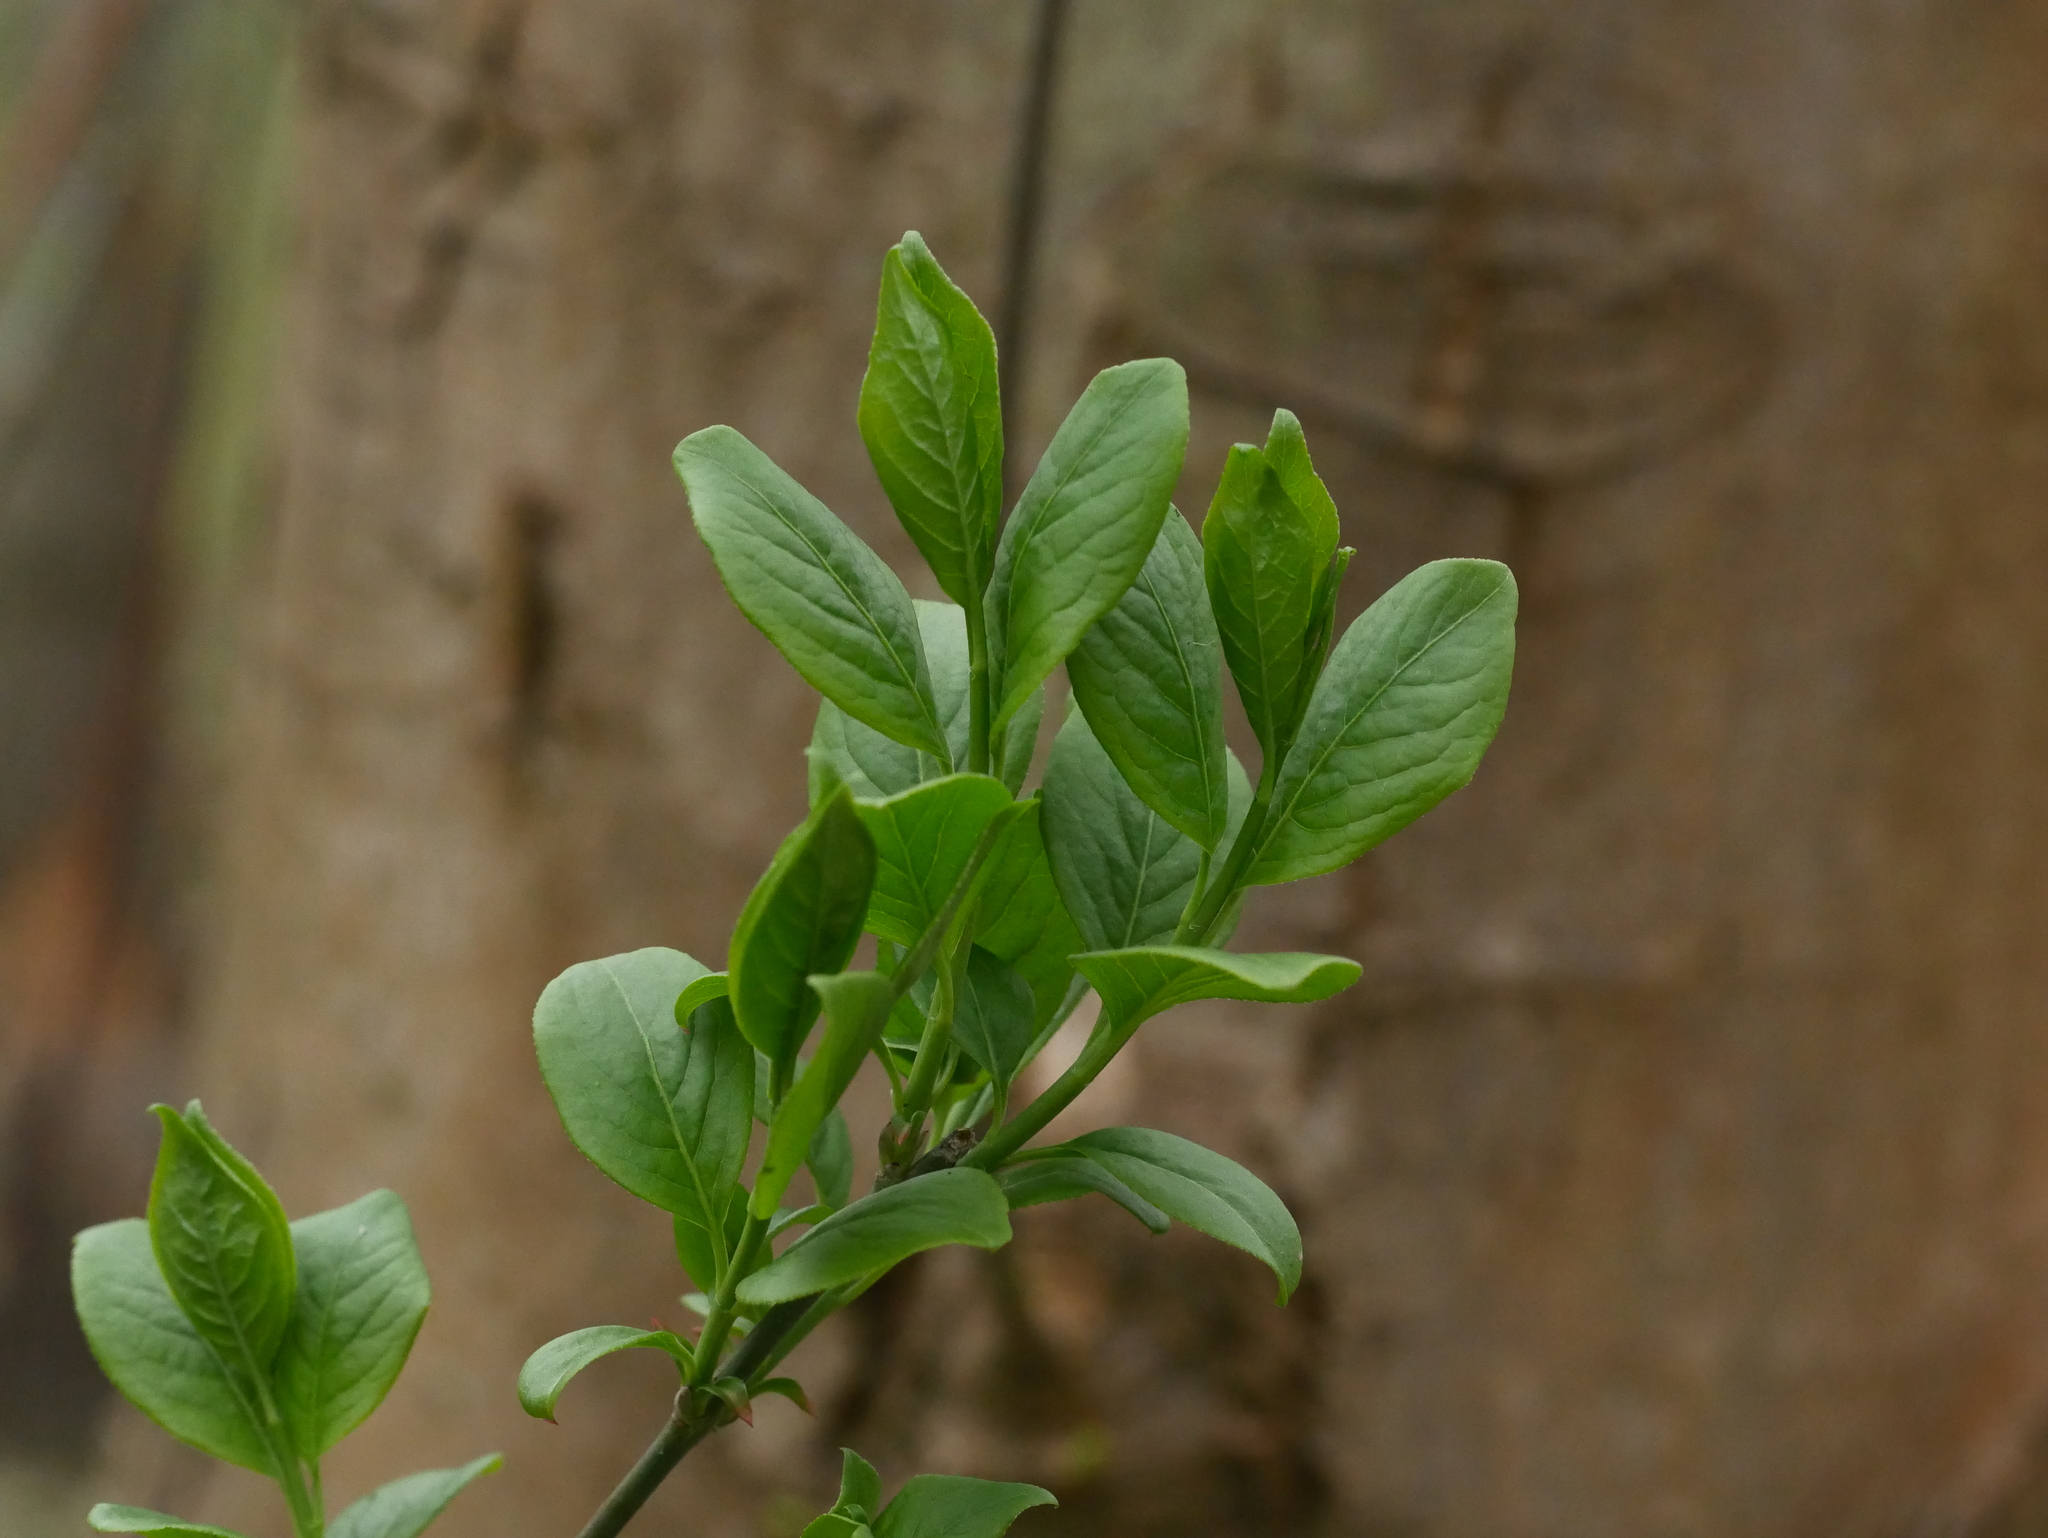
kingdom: Plantae
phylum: Tracheophyta
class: Magnoliopsida
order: Celastrales
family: Celastraceae
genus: Euonymus
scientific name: Euonymus europaeus
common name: Spindle
